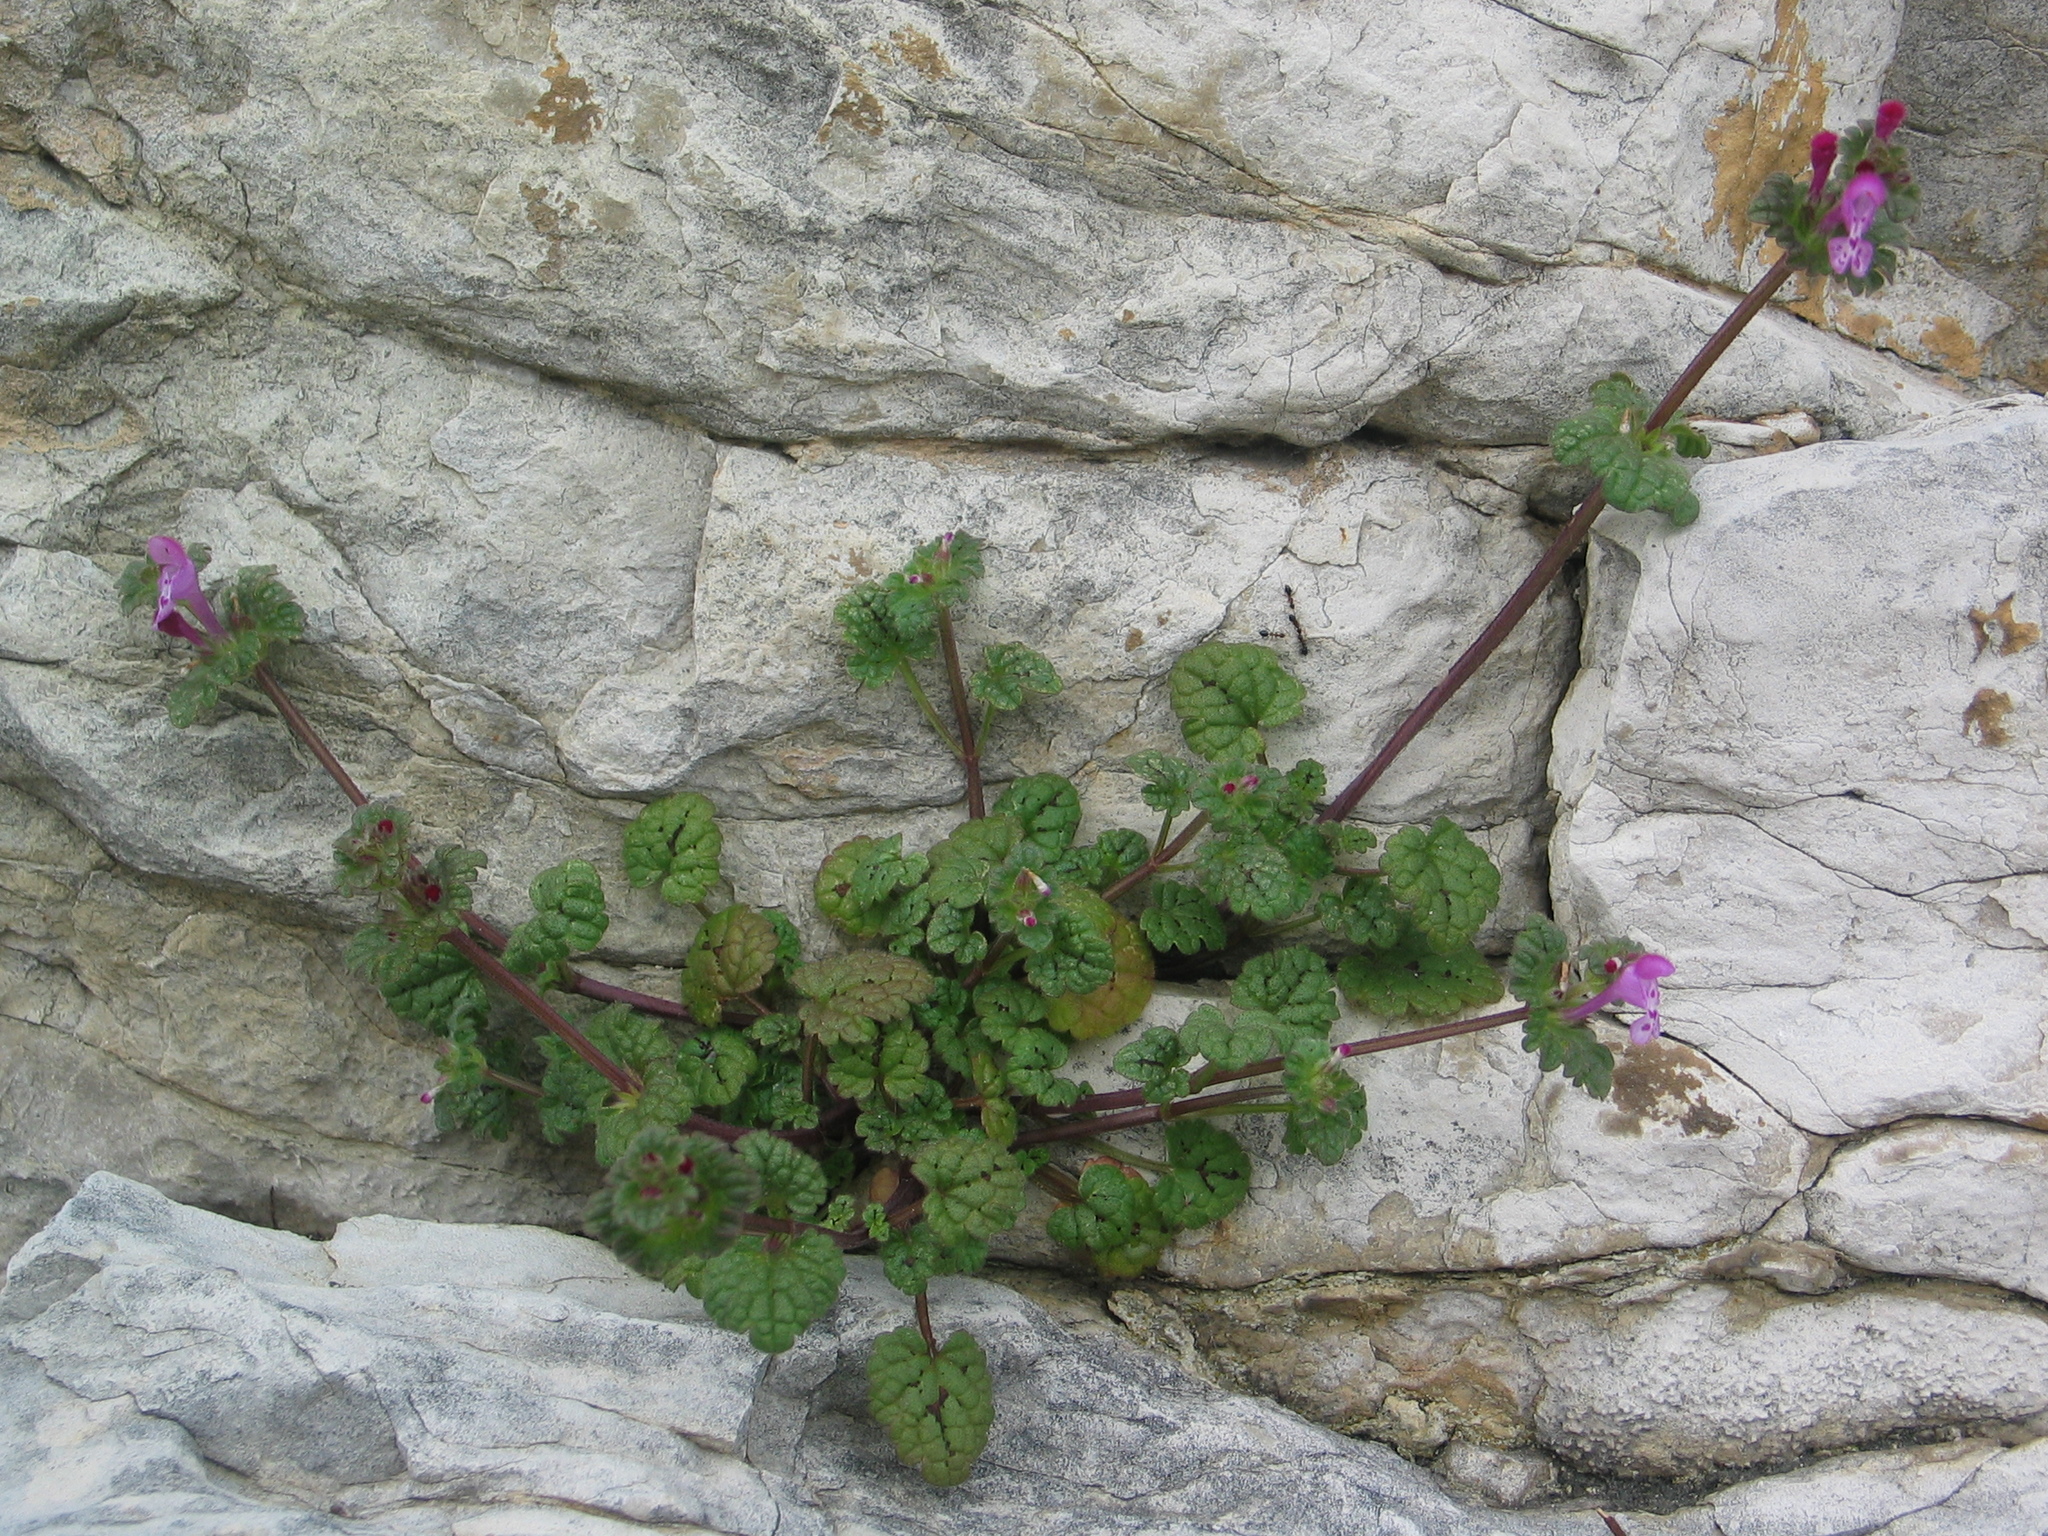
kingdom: Plantae
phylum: Tracheophyta
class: Magnoliopsida
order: Lamiales
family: Lamiaceae
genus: Lamium
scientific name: Lamium amplexicaule
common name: Henbit dead-nettle
